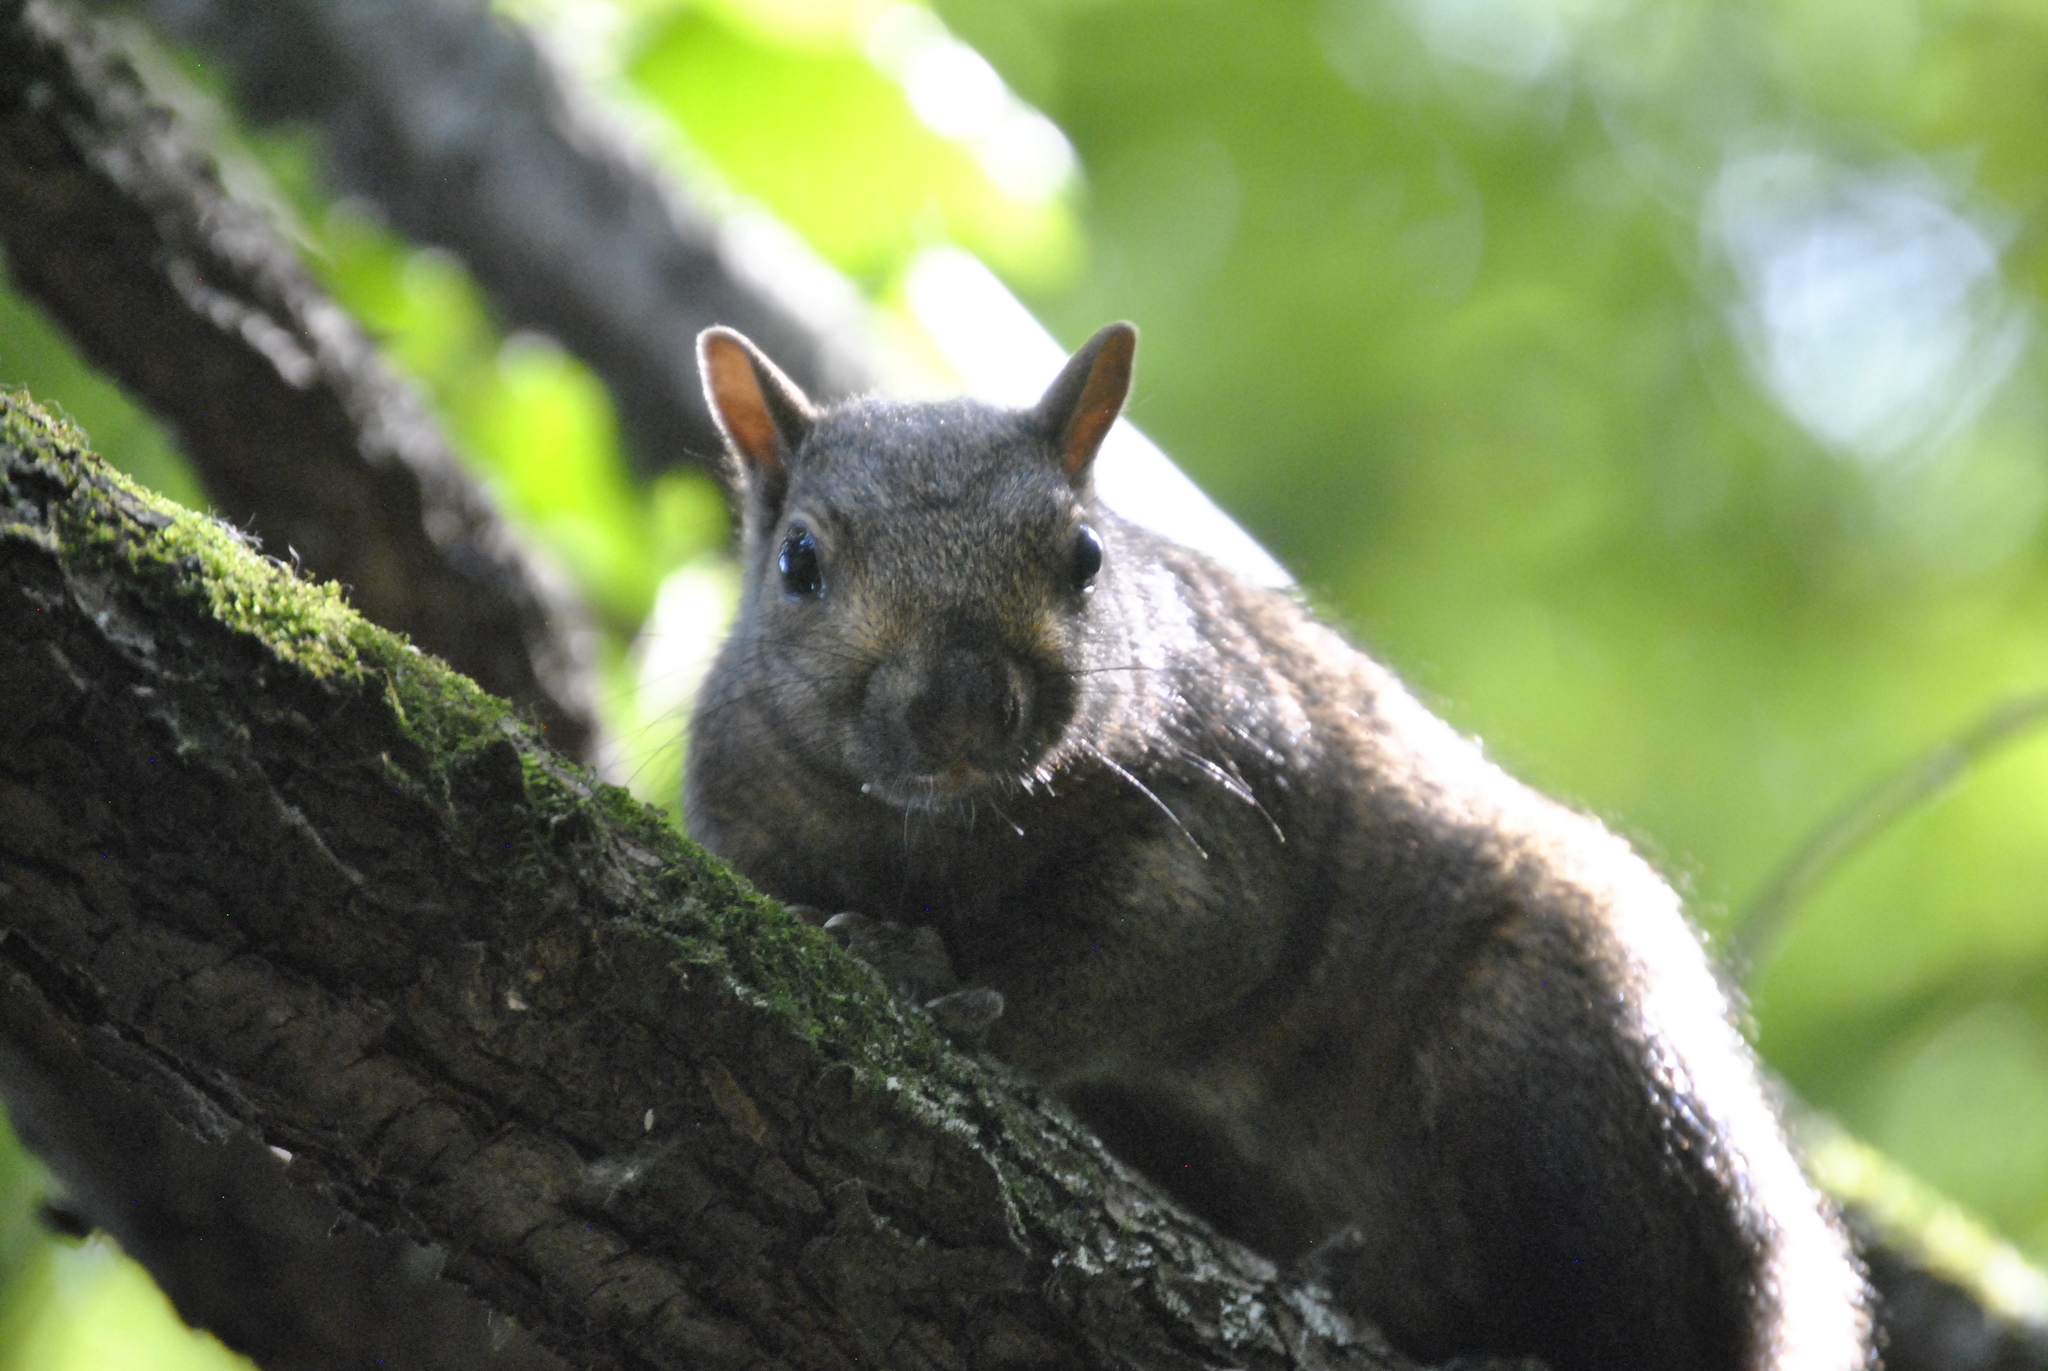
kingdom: Animalia
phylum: Chordata
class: Mammalia
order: Rodentia
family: Sciuridae
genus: Sciurus
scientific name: Sciurus carolinensis
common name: Eastern gray squirrel
